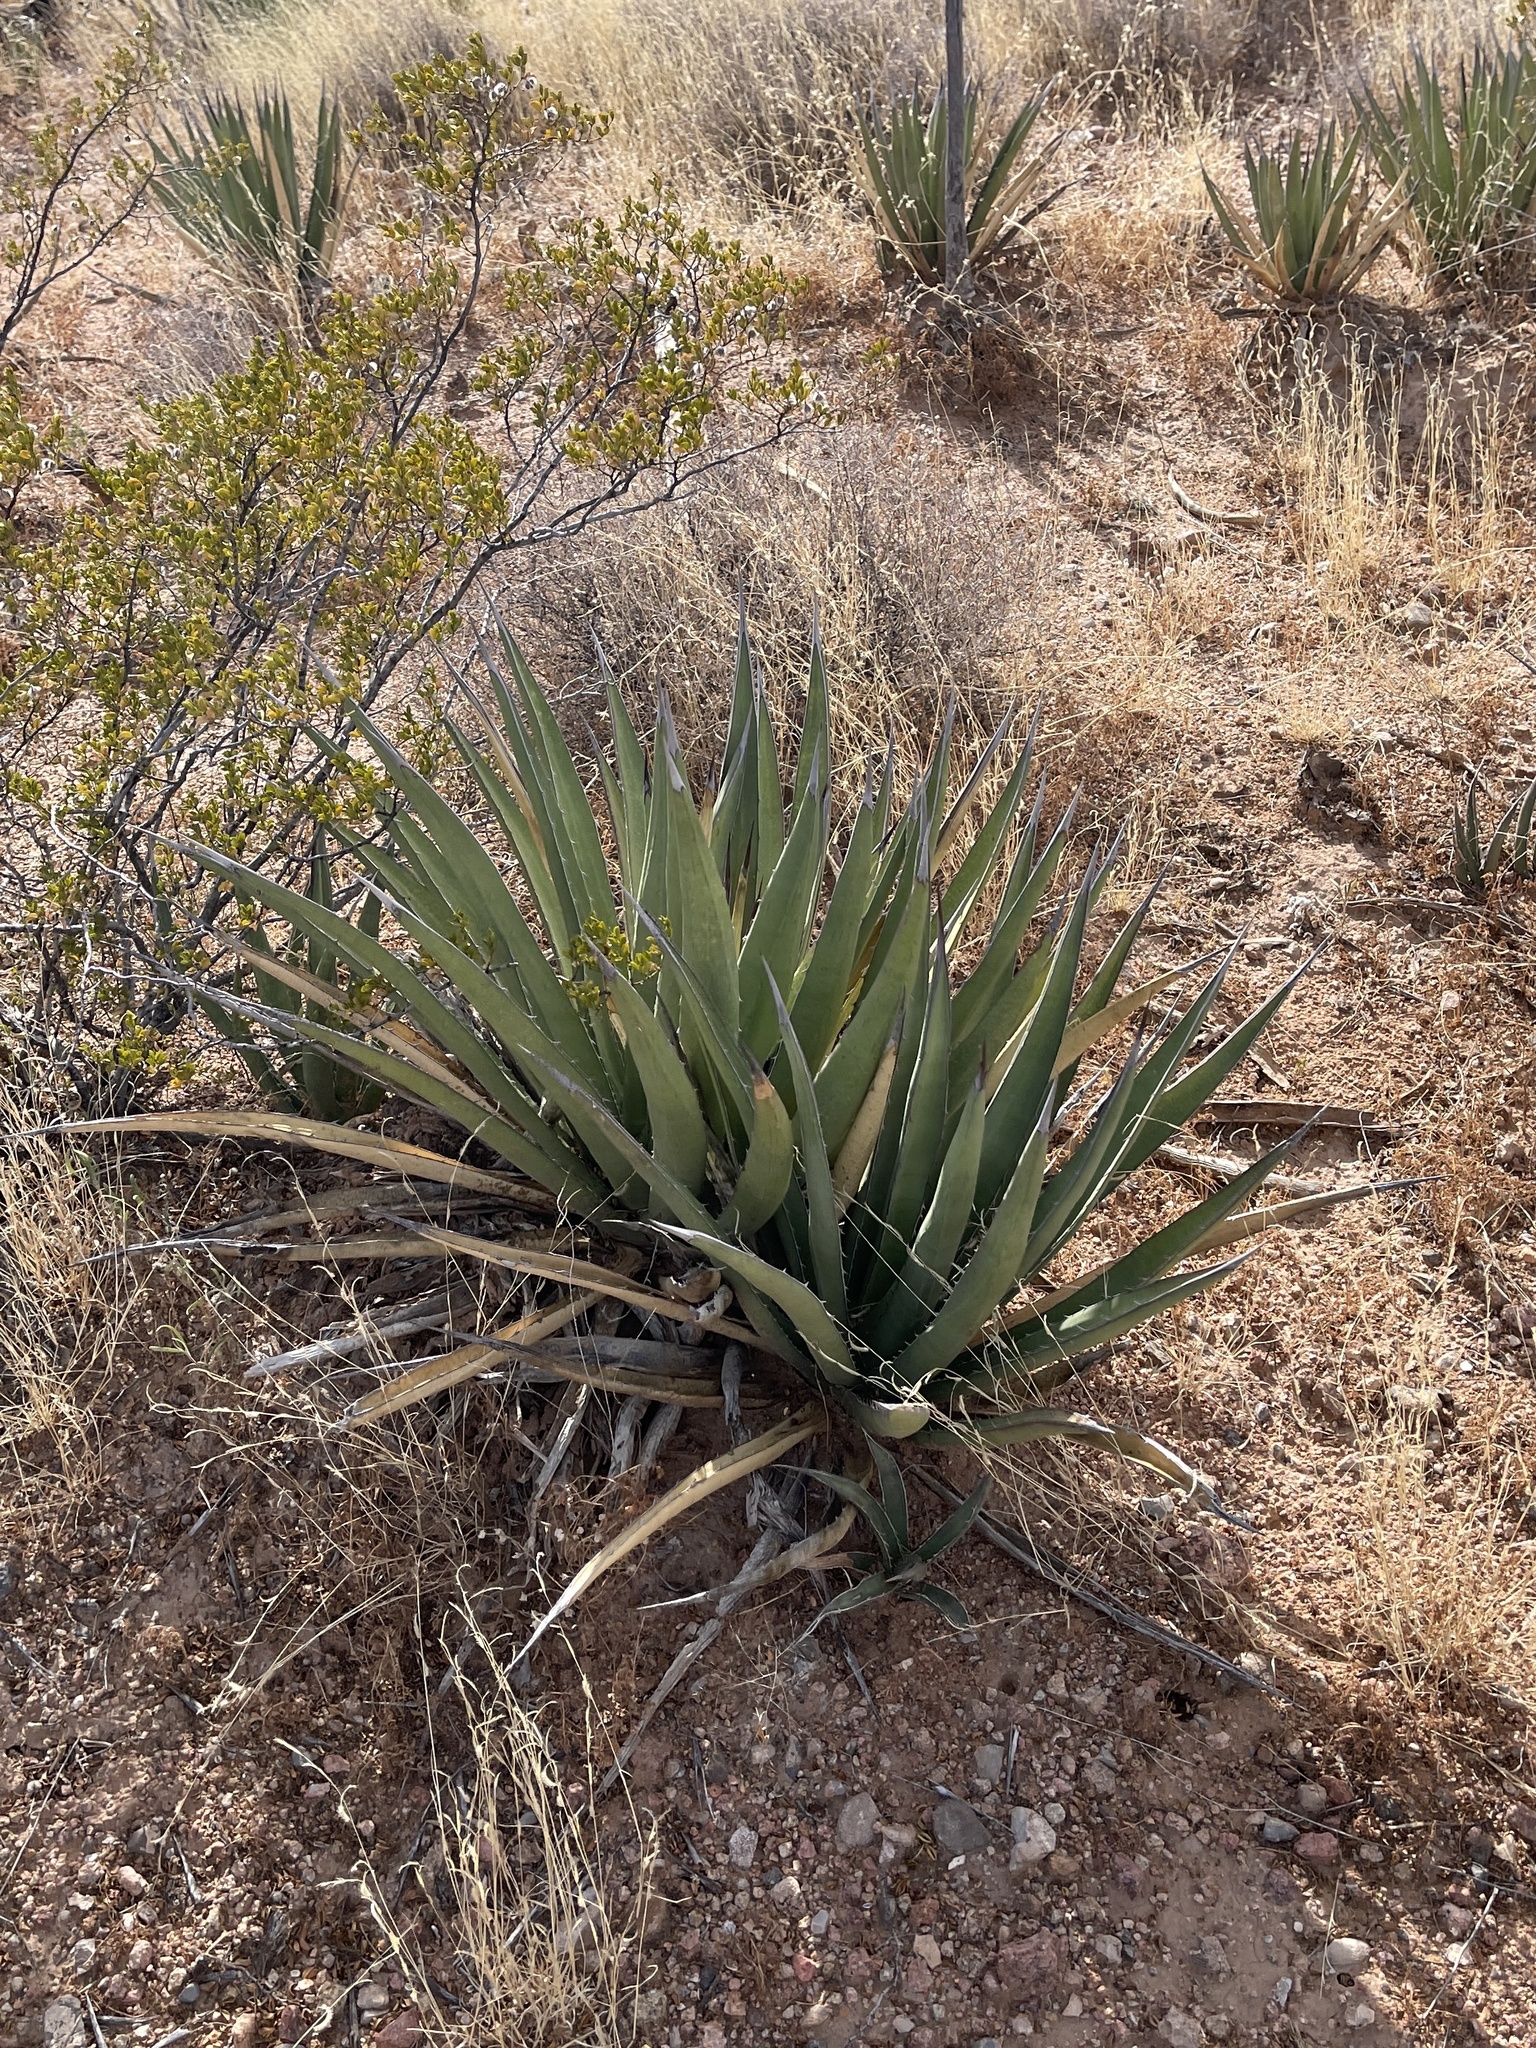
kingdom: Plantae
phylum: Tracheophyta
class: Liliopsida
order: Asparagales
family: Asparagaceae
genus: Agave
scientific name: Agave lechuguilla
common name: Lecheguilla agave
